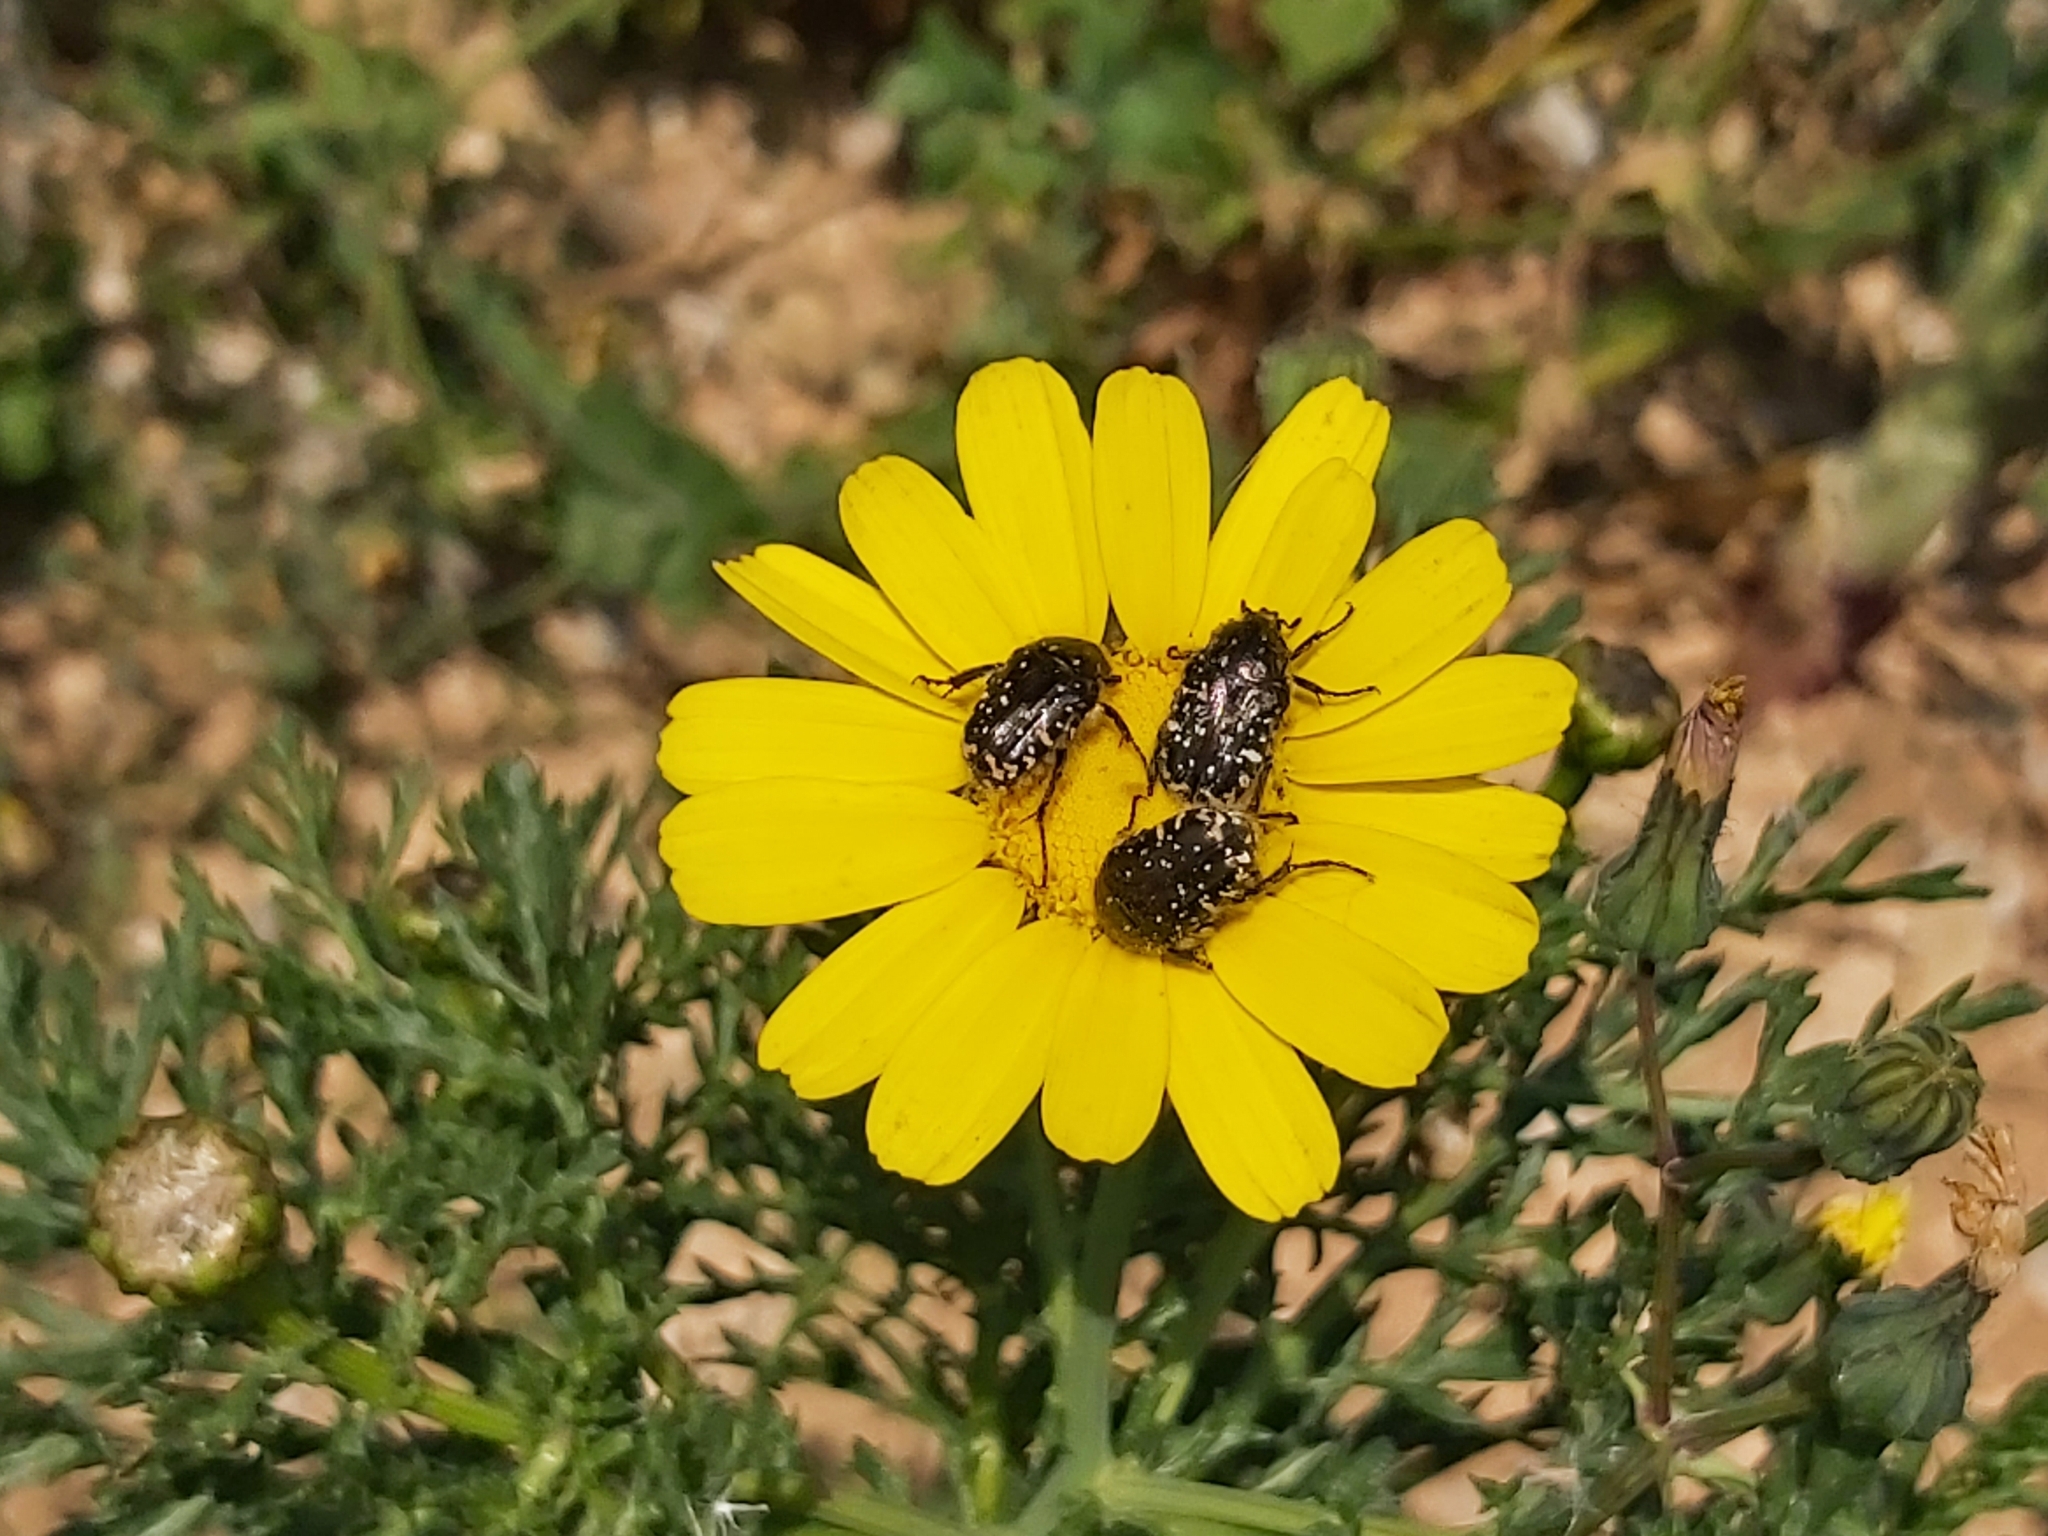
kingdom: Animalia
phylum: Arthropoda
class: Insecta
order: Coleoptera
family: Scarabaeidae
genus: Oxythyrea
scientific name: Oxythyrea funesta
